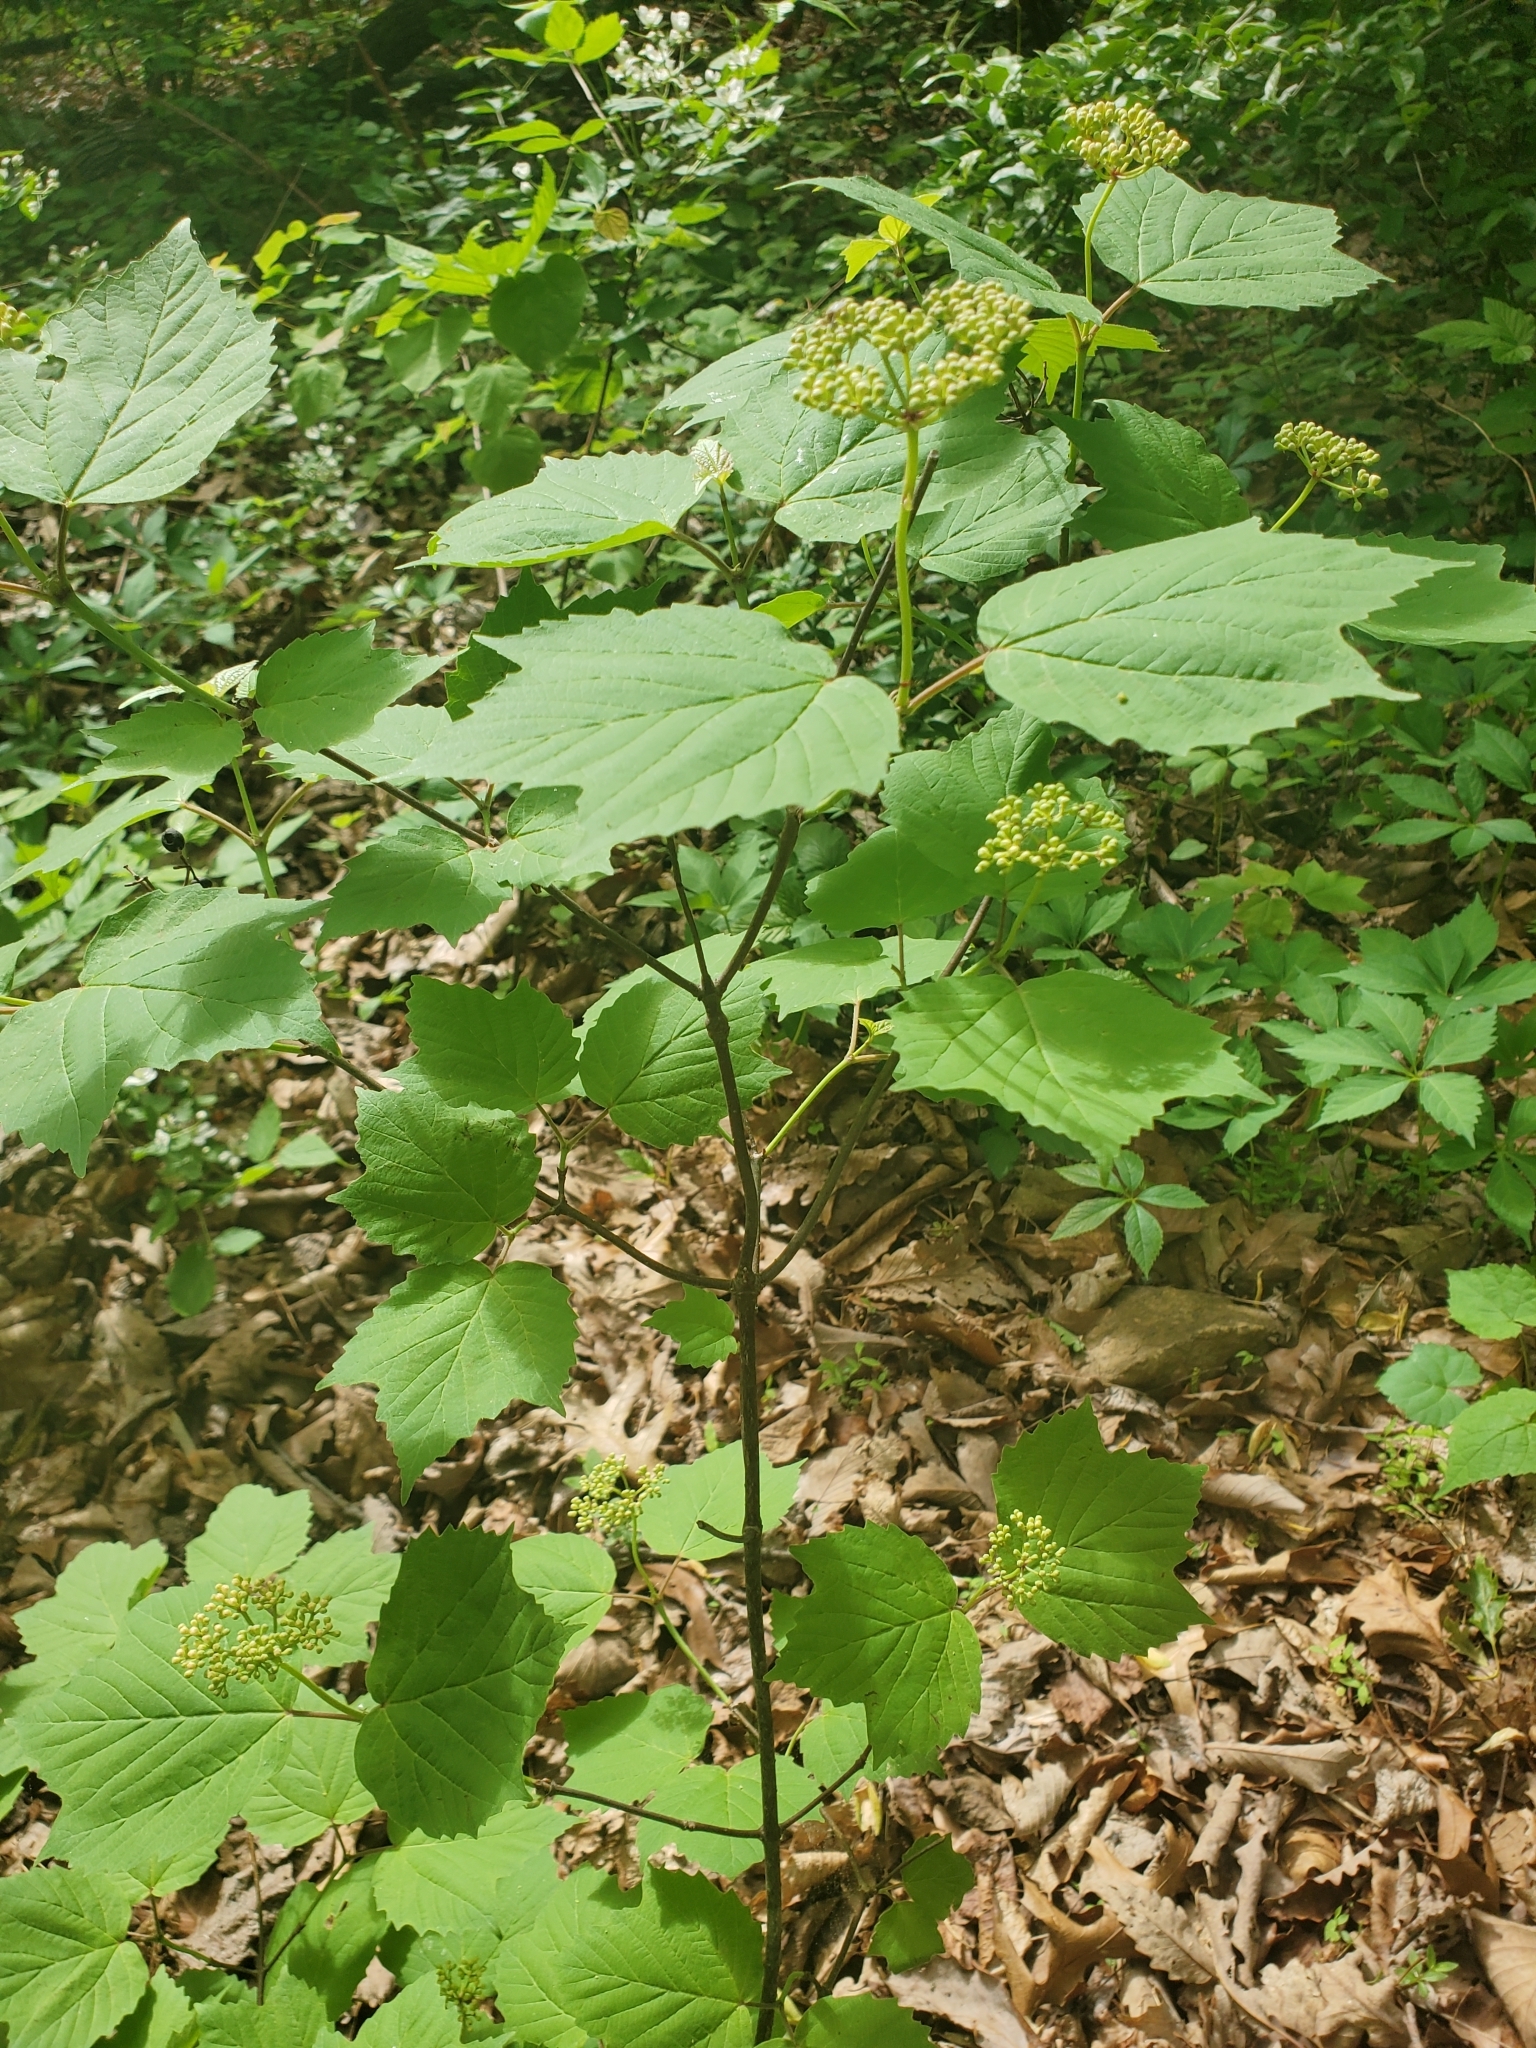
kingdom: Plantae
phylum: Tracheophyta
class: Magnoliopsida
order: Dipsacales
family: Viburnaceae
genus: Viburnum
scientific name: Viburnum acerifolium
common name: Dockmackie
